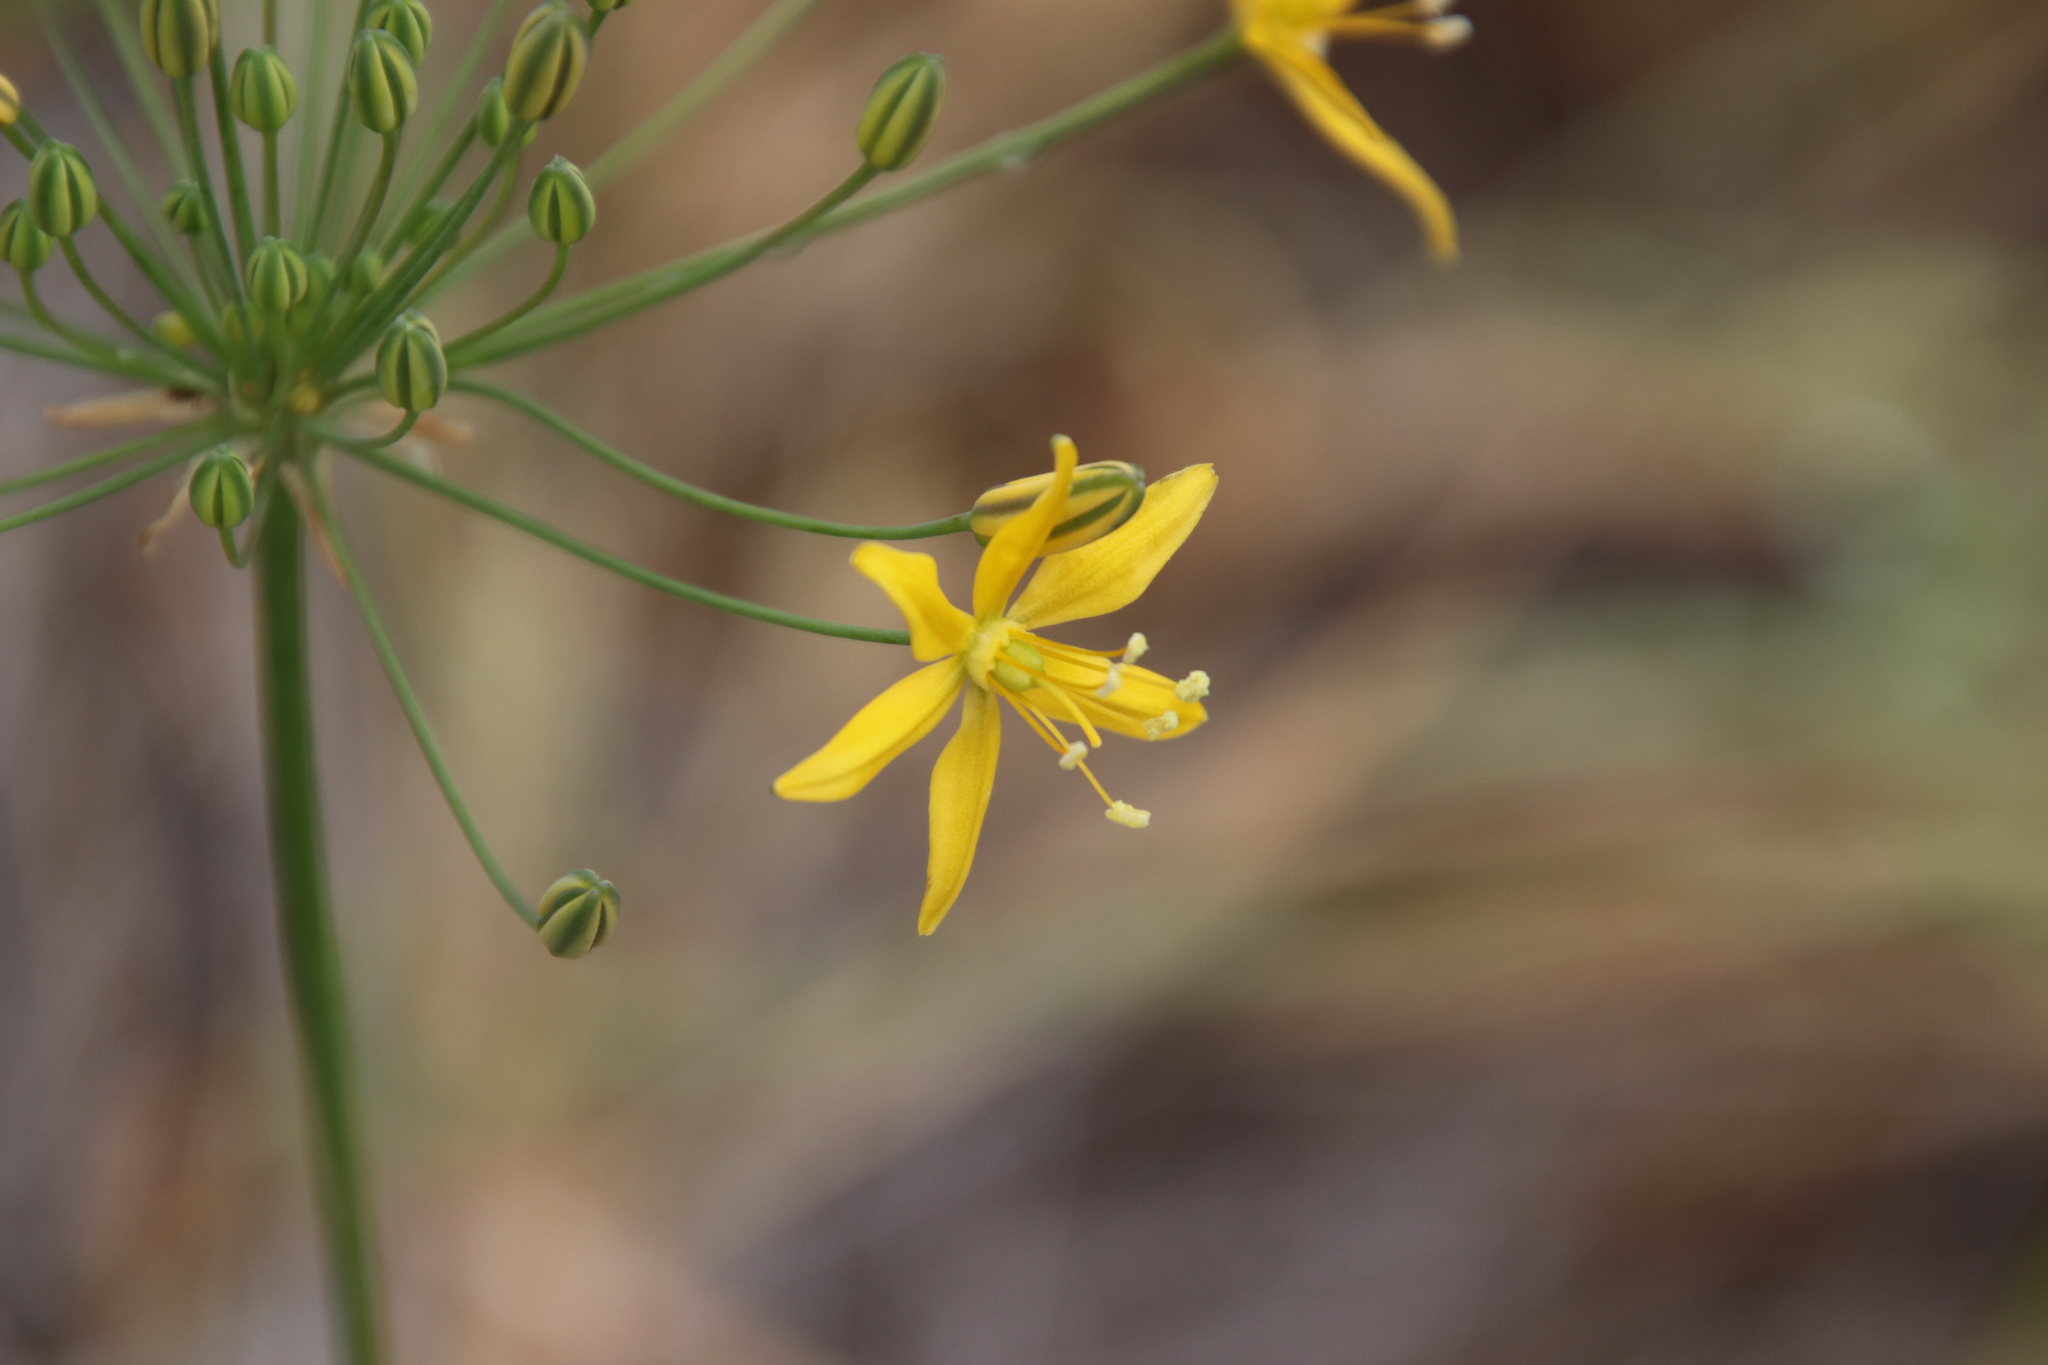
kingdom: Plantae
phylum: Tracheophyta
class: Liliopsida
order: Asparagales
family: Asparagaceae
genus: Bloomeria
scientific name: Bloomeria crocea
